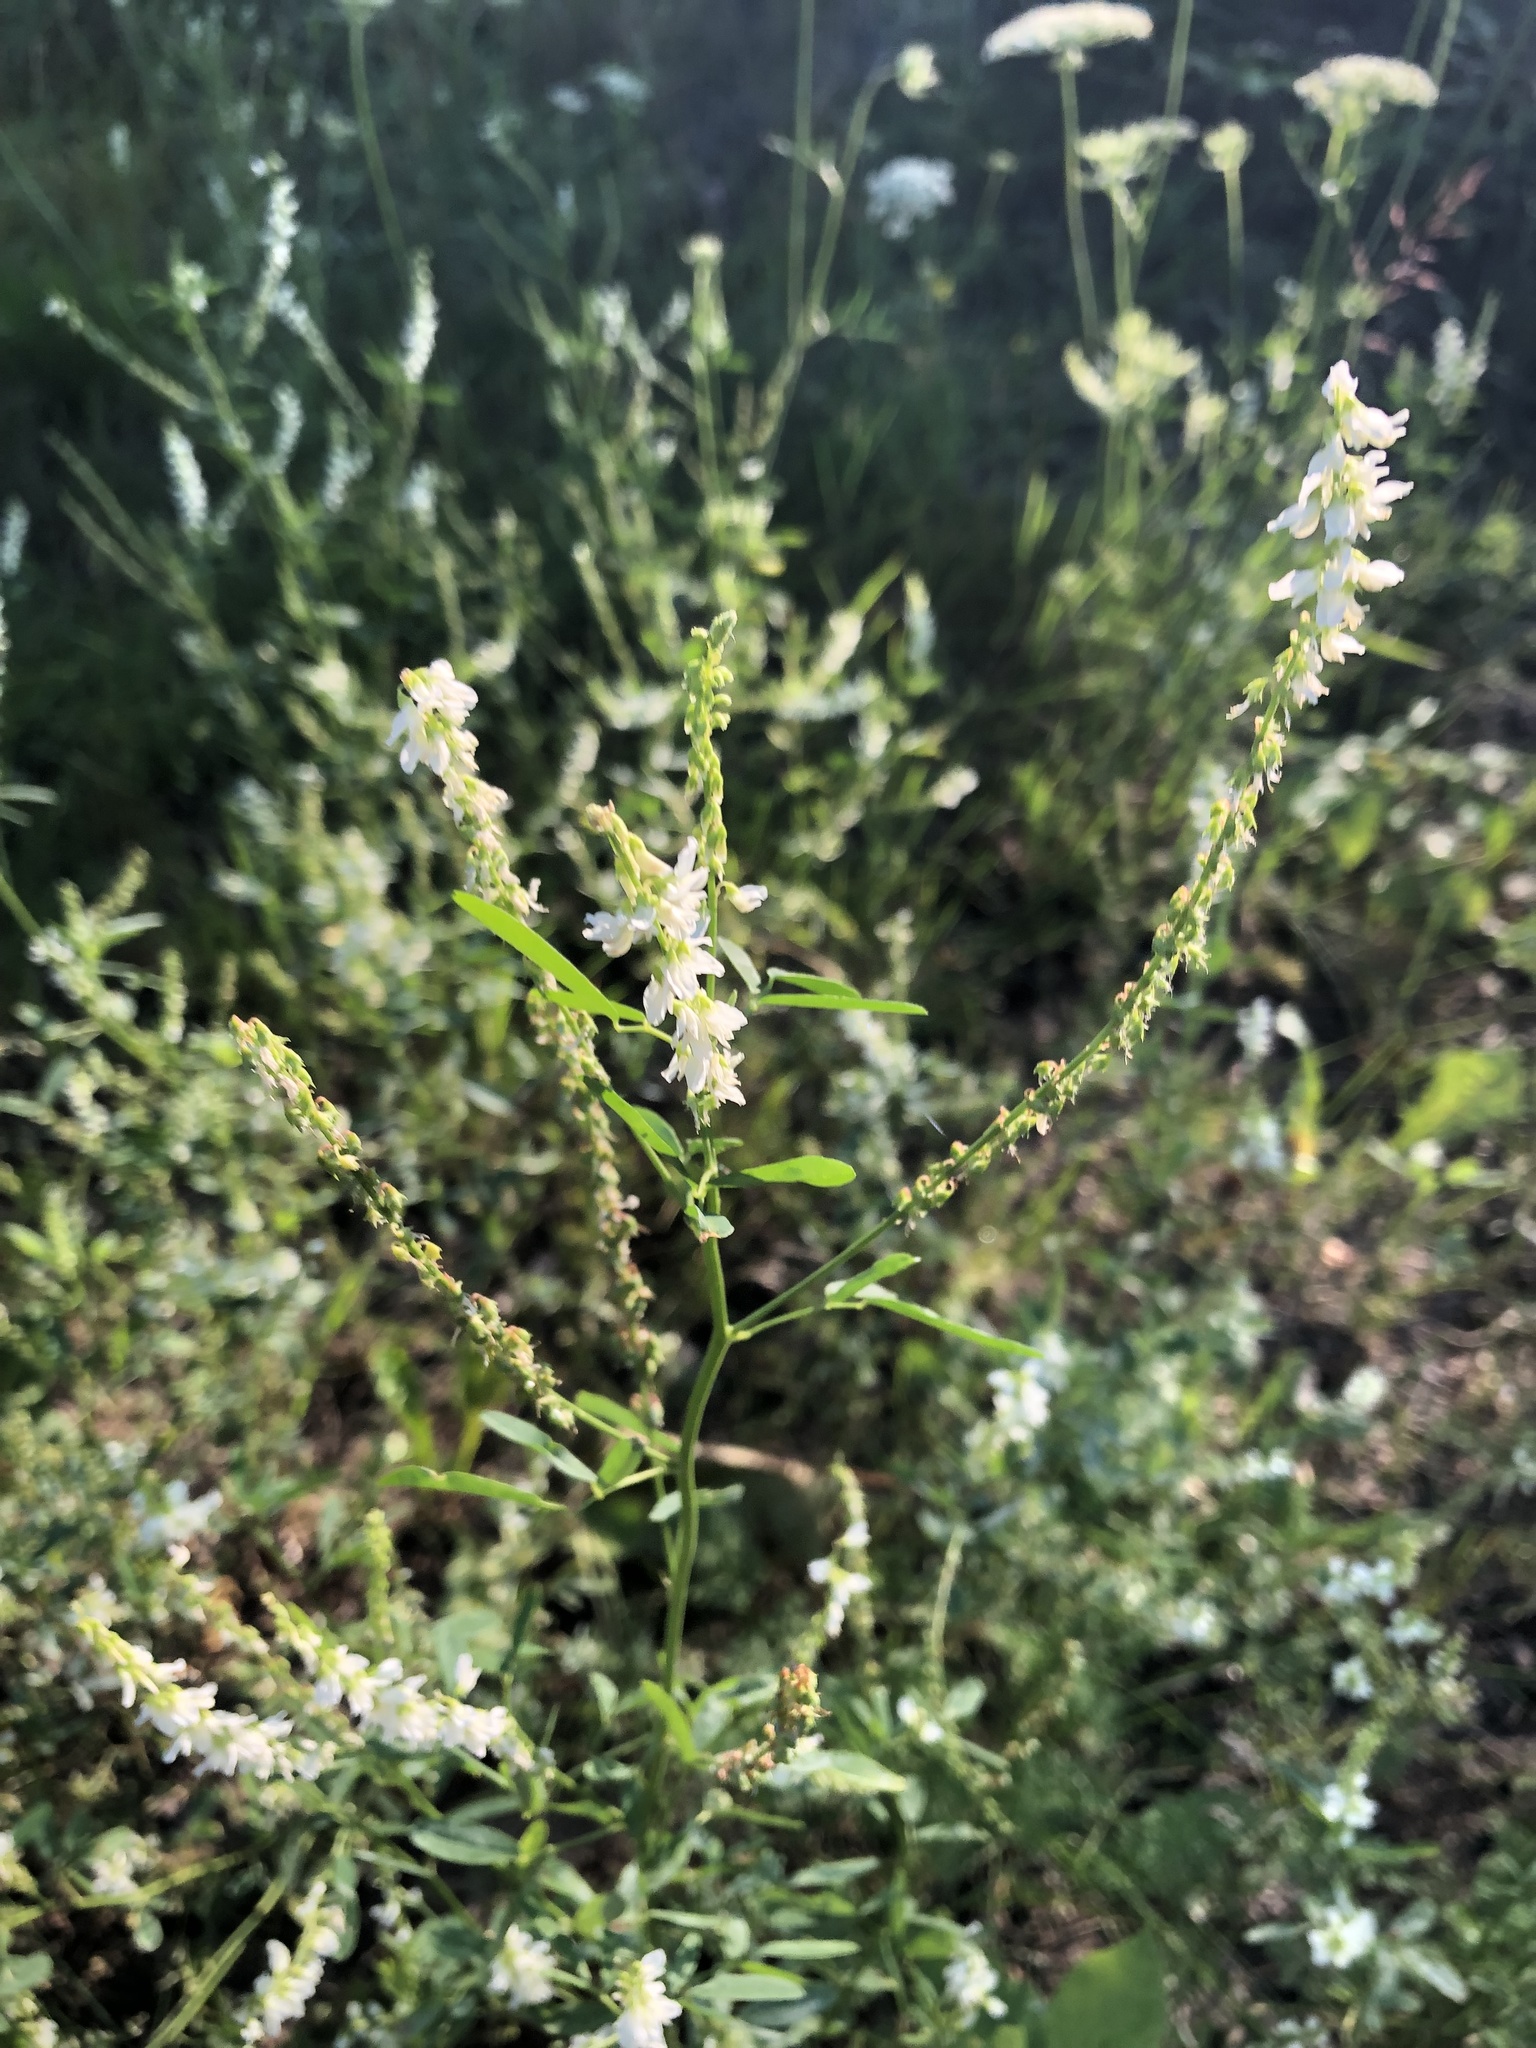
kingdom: Plantae
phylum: Tracheophyta
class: Magnoliopsida
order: Fabales
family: Fabaceae
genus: Melilotus
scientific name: Melilotus albus
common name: White melilot
